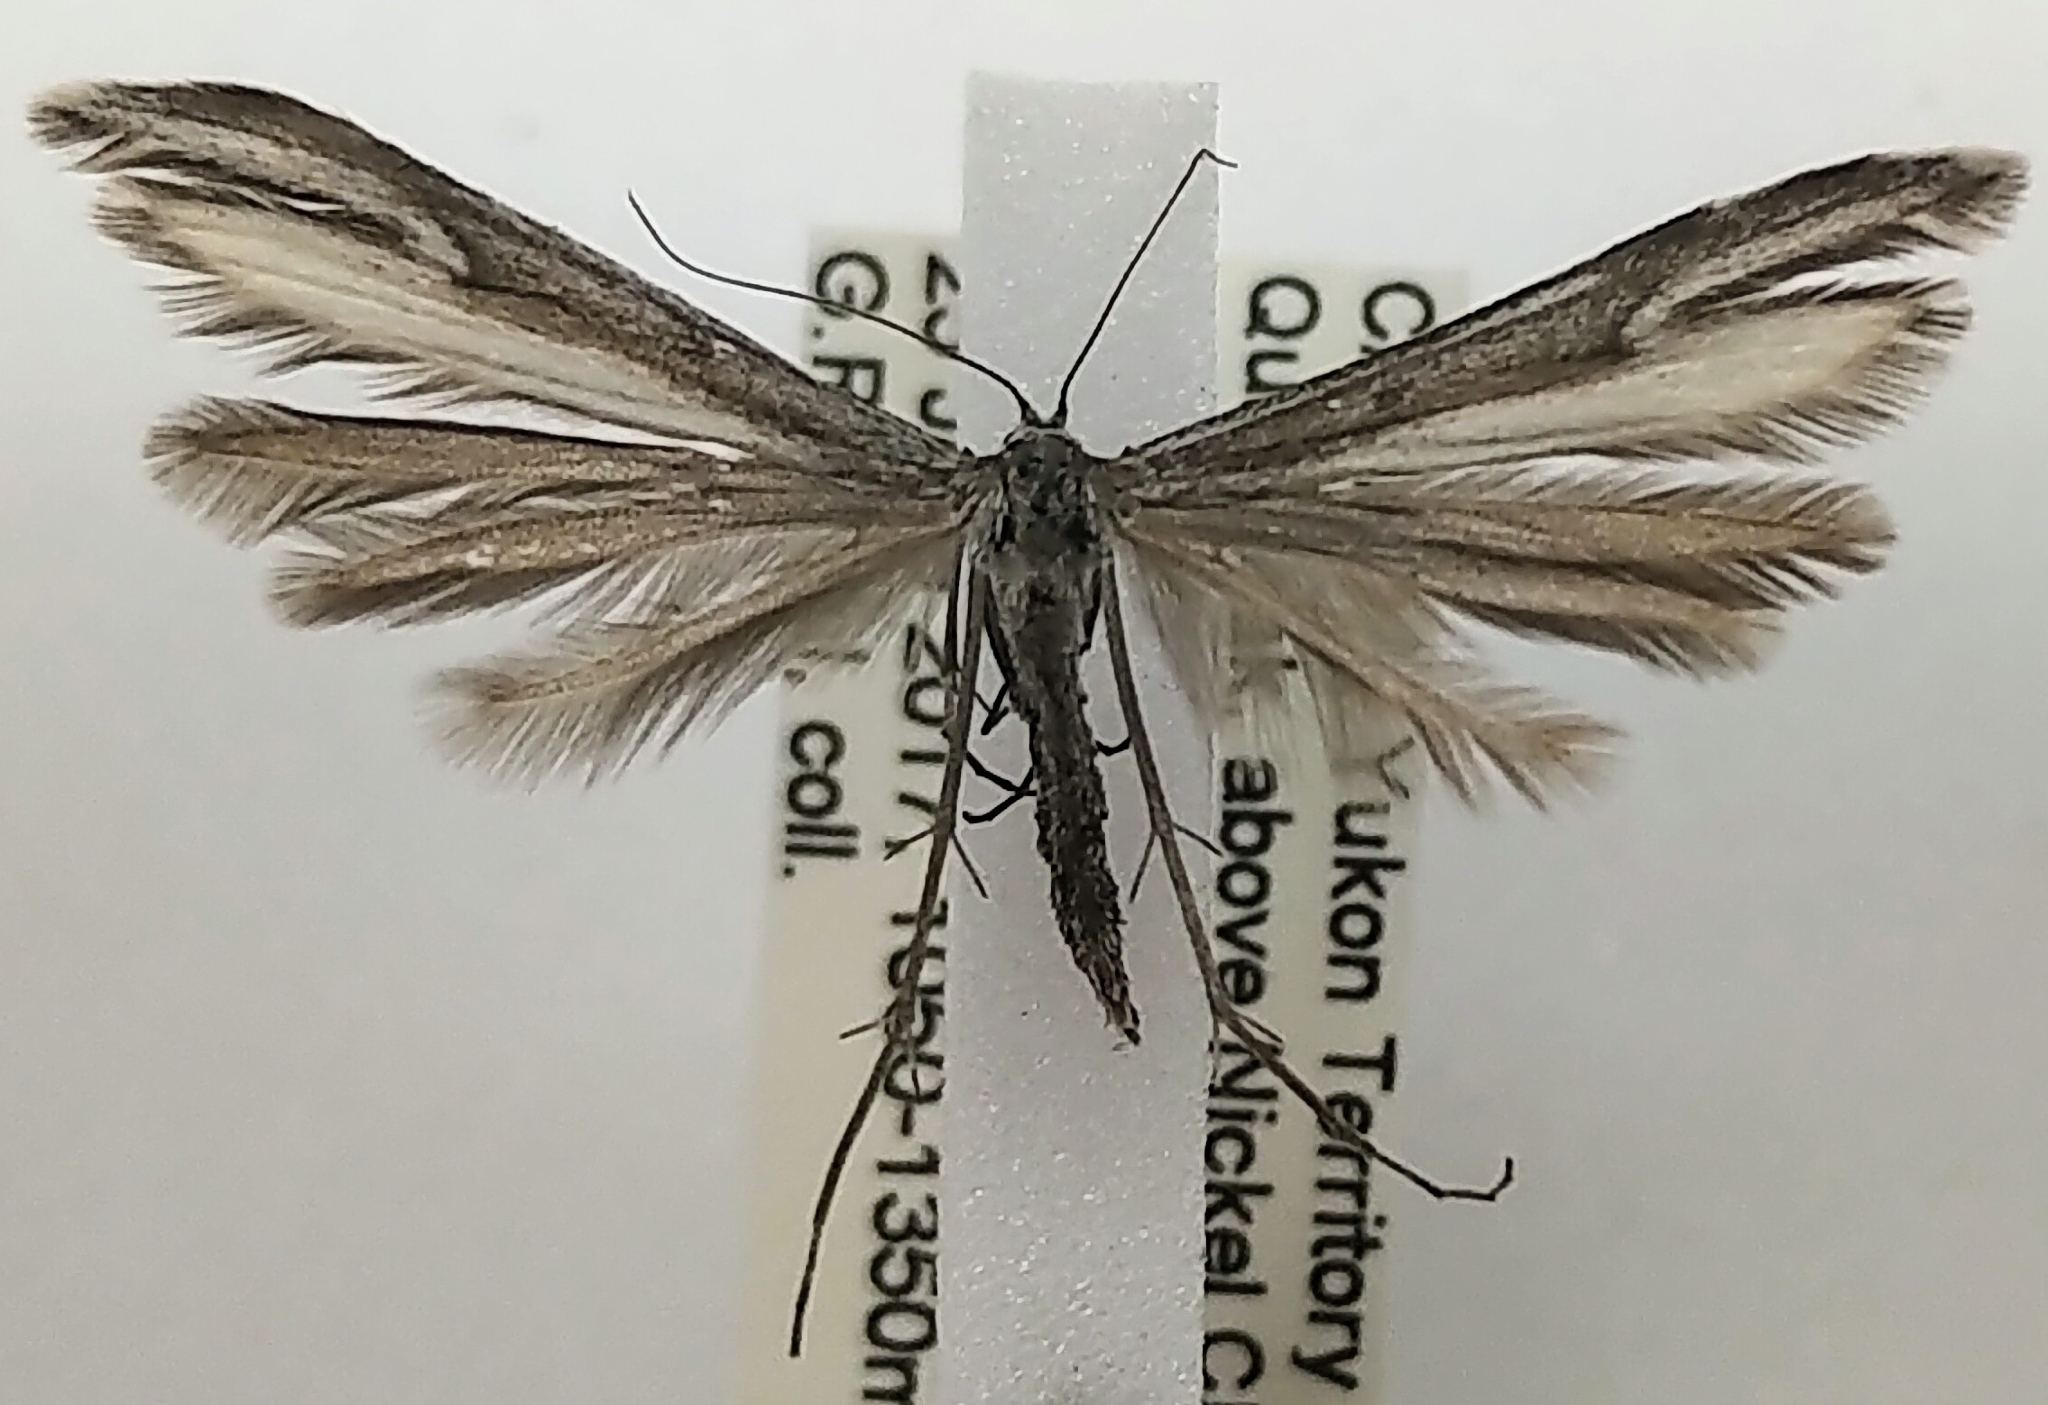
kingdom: Animalia
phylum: Arthropoda
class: Insecta
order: Lepidoptera
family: Pterophoridae
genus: Hellinsia
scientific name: Hellinsia albilobatus
